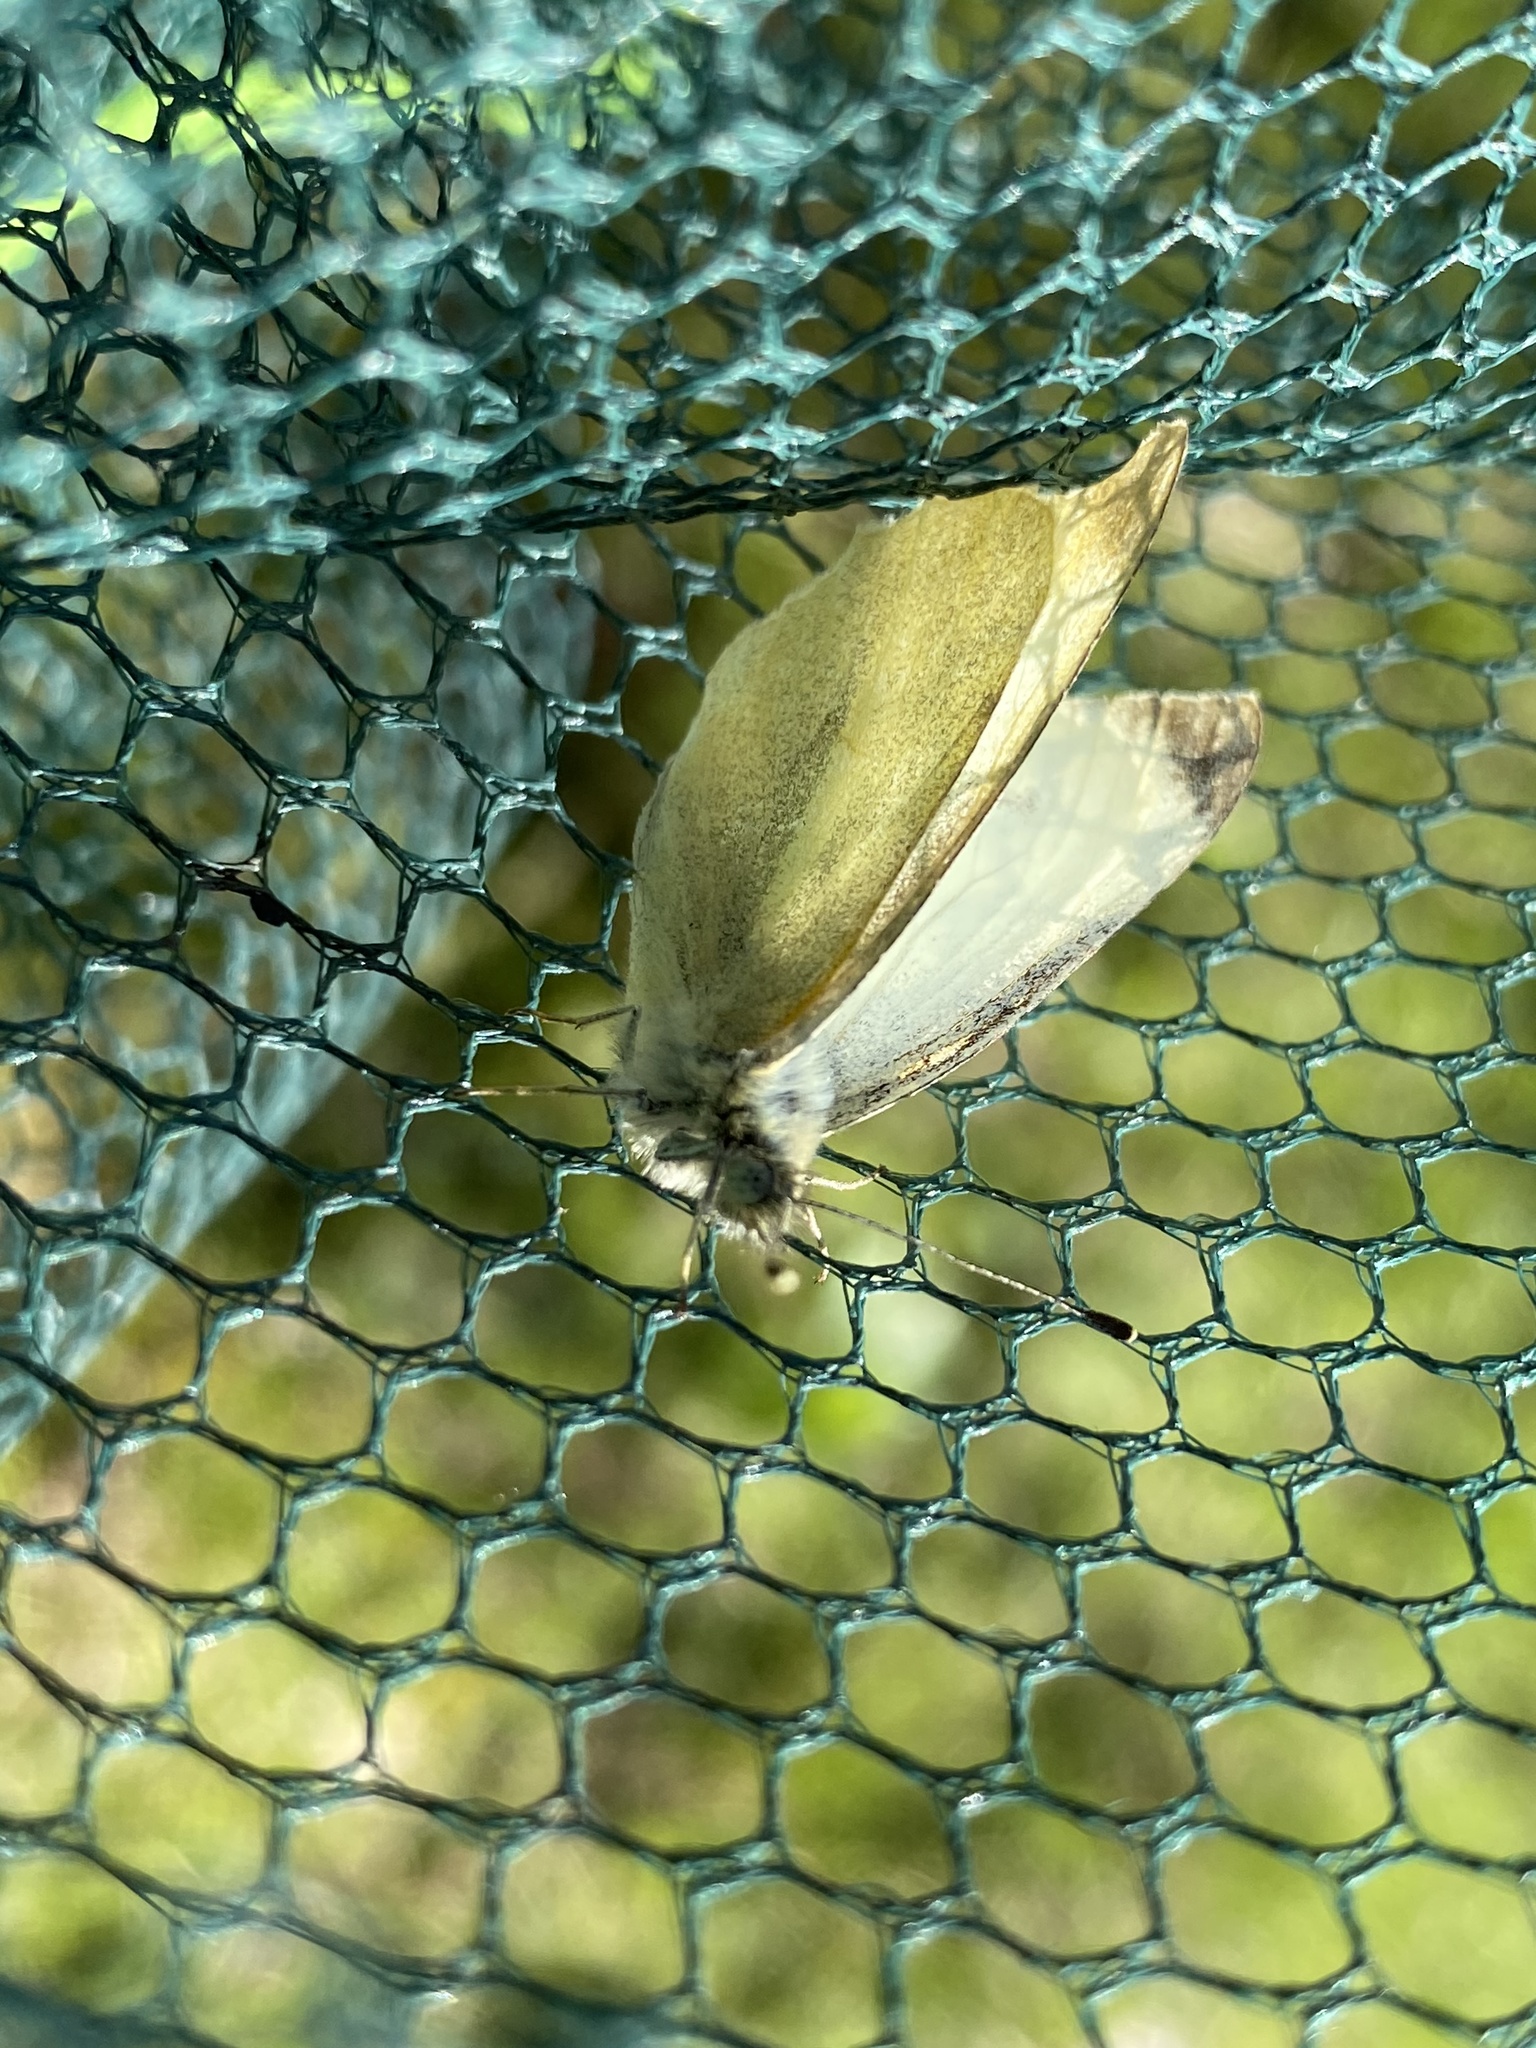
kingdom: Animalia
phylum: Arthropoda
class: Insecta
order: Lepidoptera
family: Pieridae
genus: Pieris
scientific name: Pieris rapae
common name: Small white
